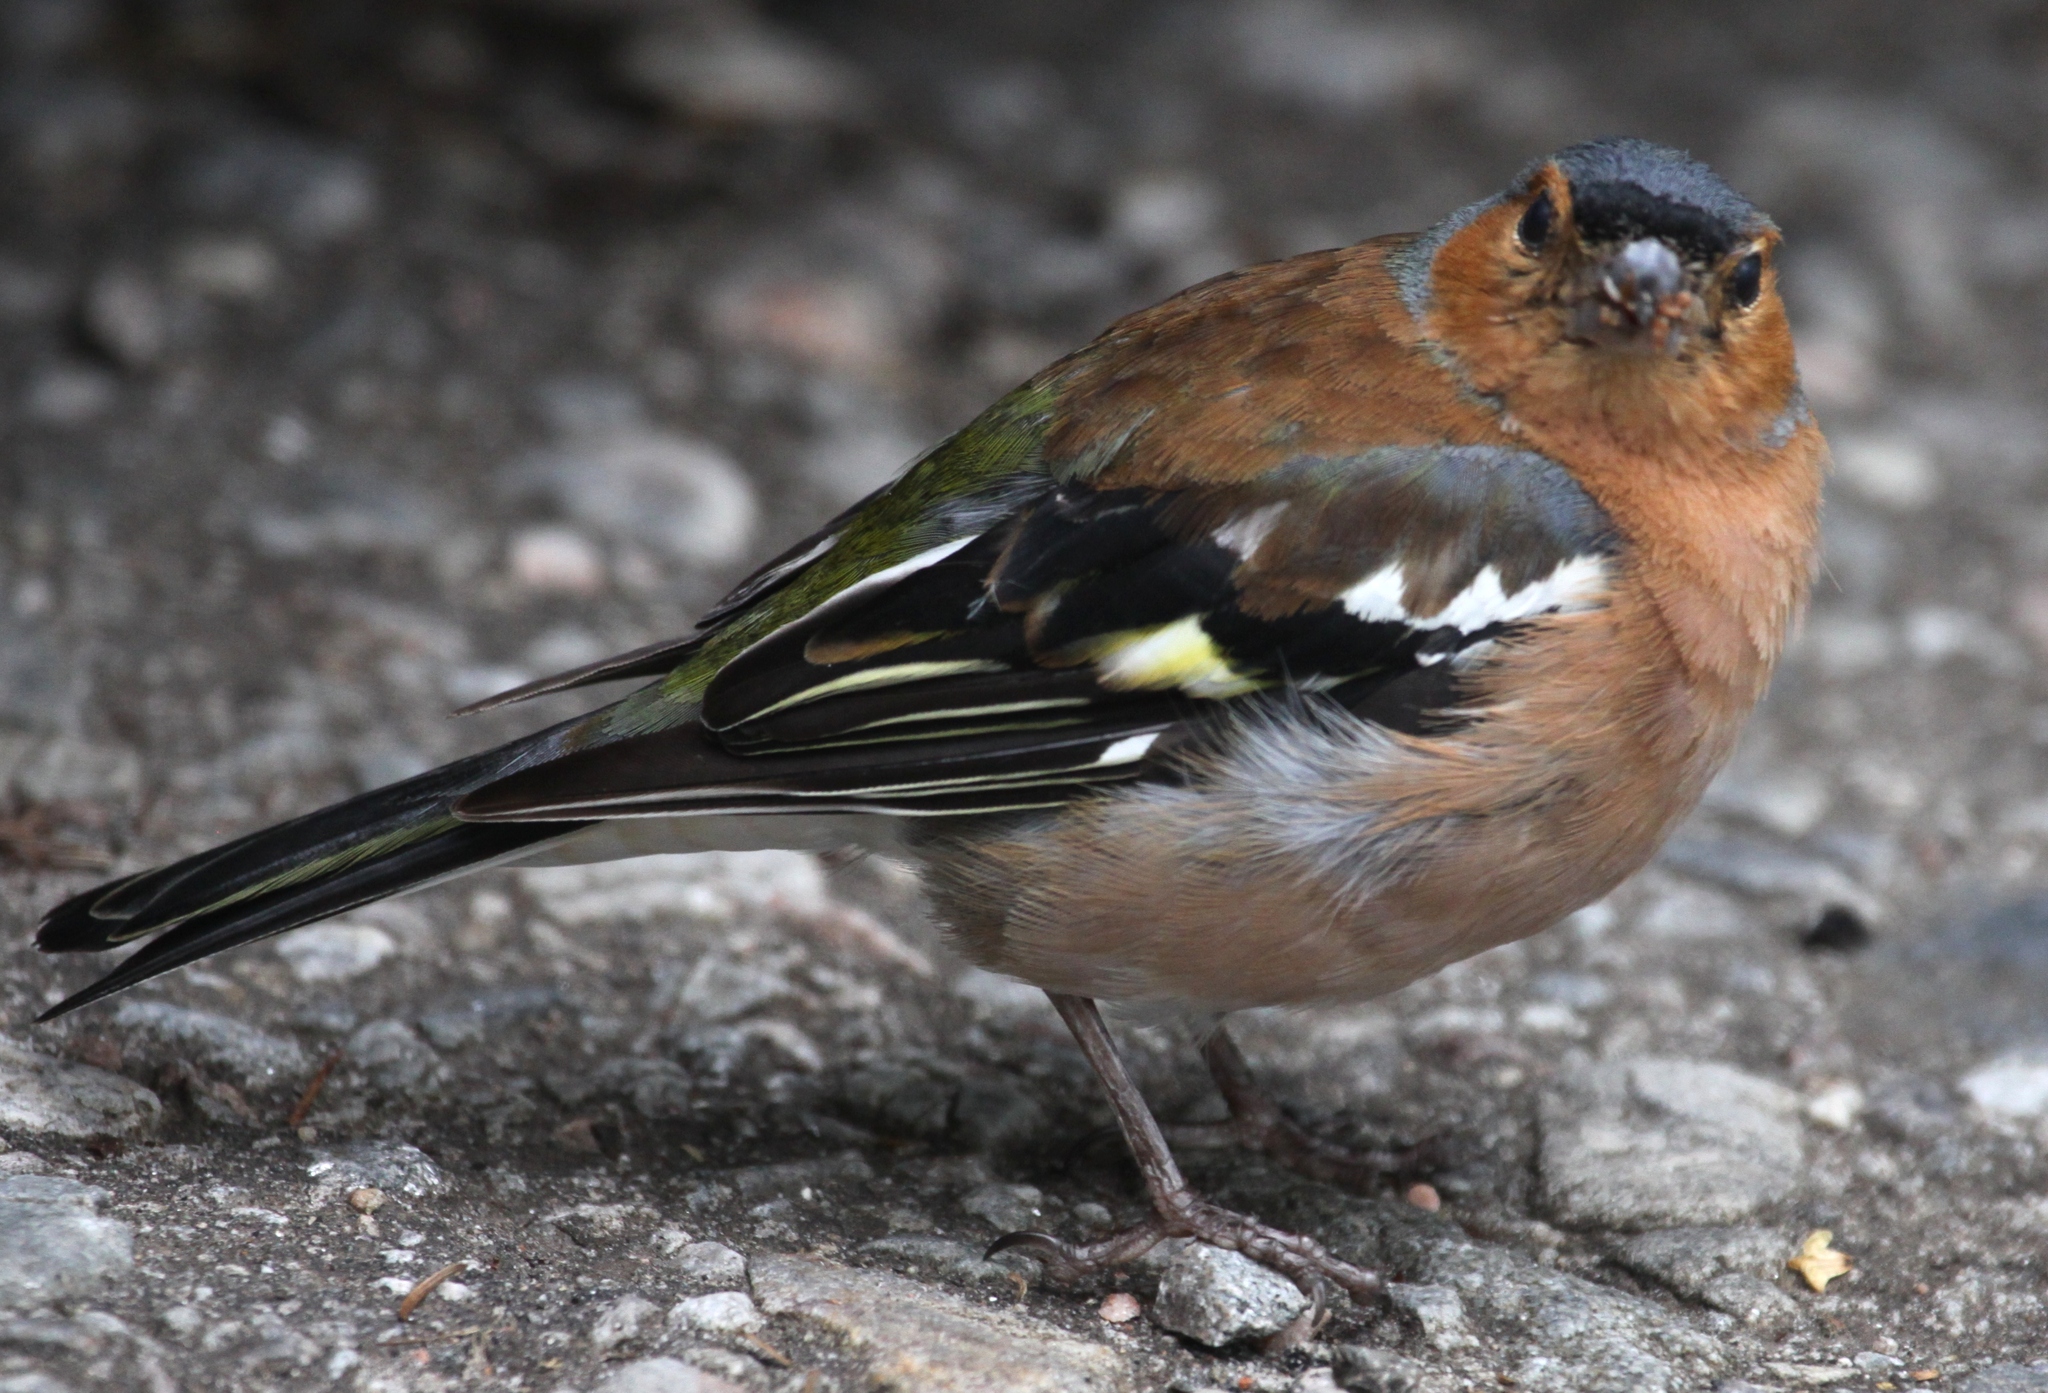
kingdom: Animalia
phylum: Chordata
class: Aves
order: Passeriformes
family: Fringillidae
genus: Fringilla
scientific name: Fringilla coelebs
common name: Common chaffinch
